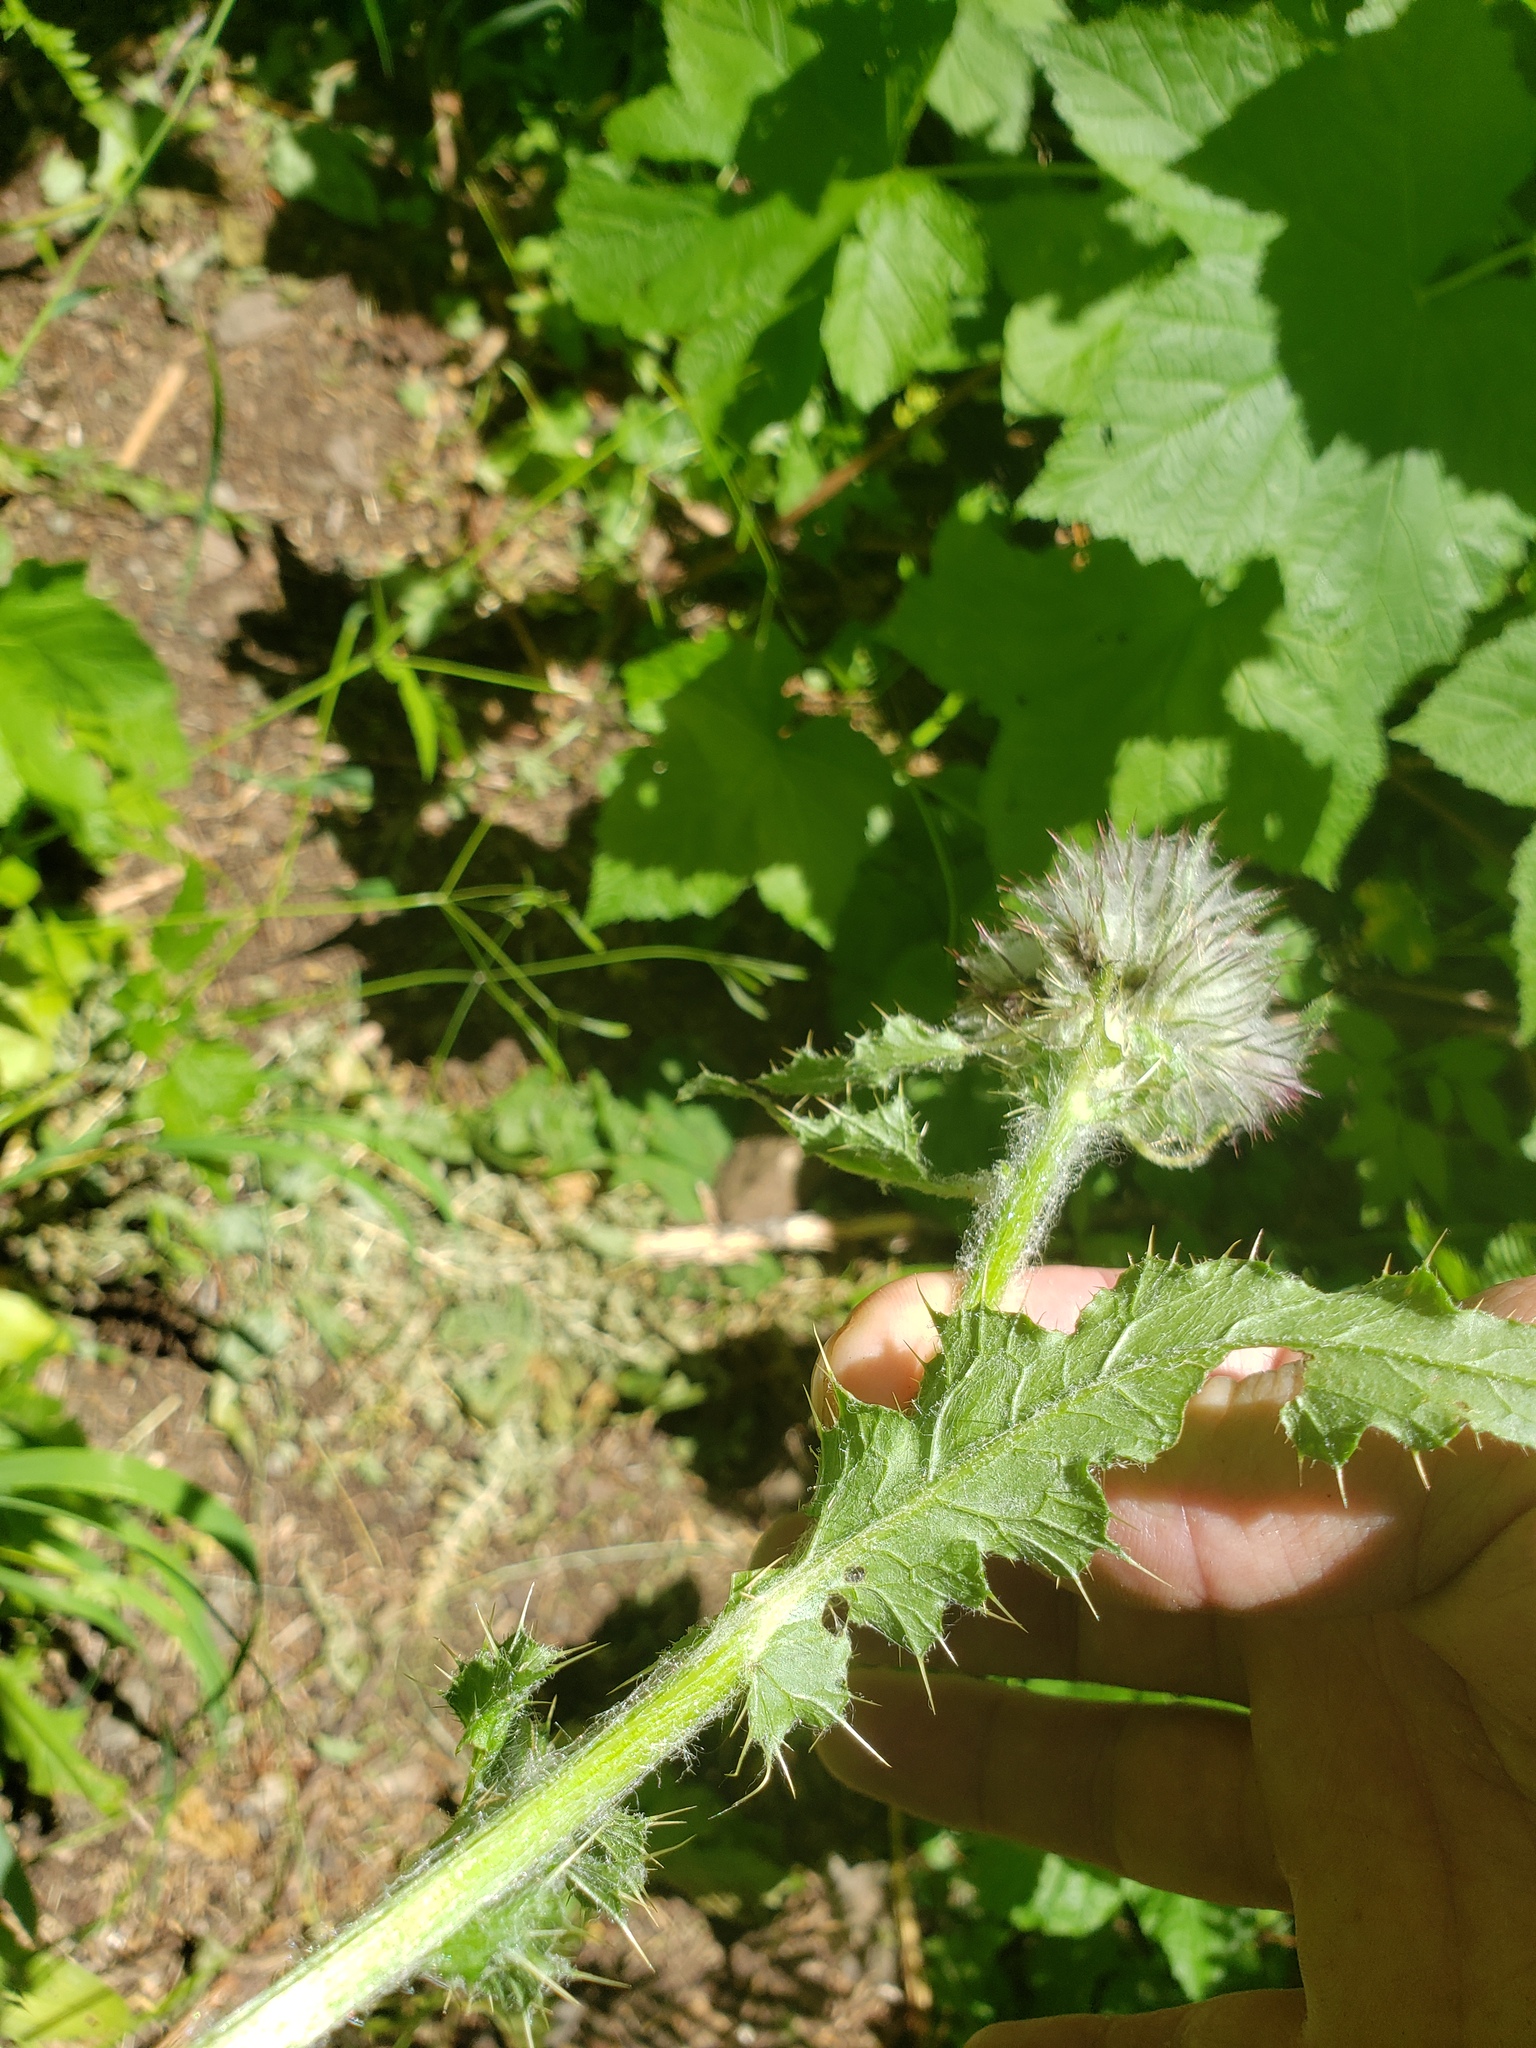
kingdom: Plantae
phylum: Tracheophyta
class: Magnoliopsida
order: Asterales
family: Asteraceae
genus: Cirsium
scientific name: Cirsium edule
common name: Indian thistle
